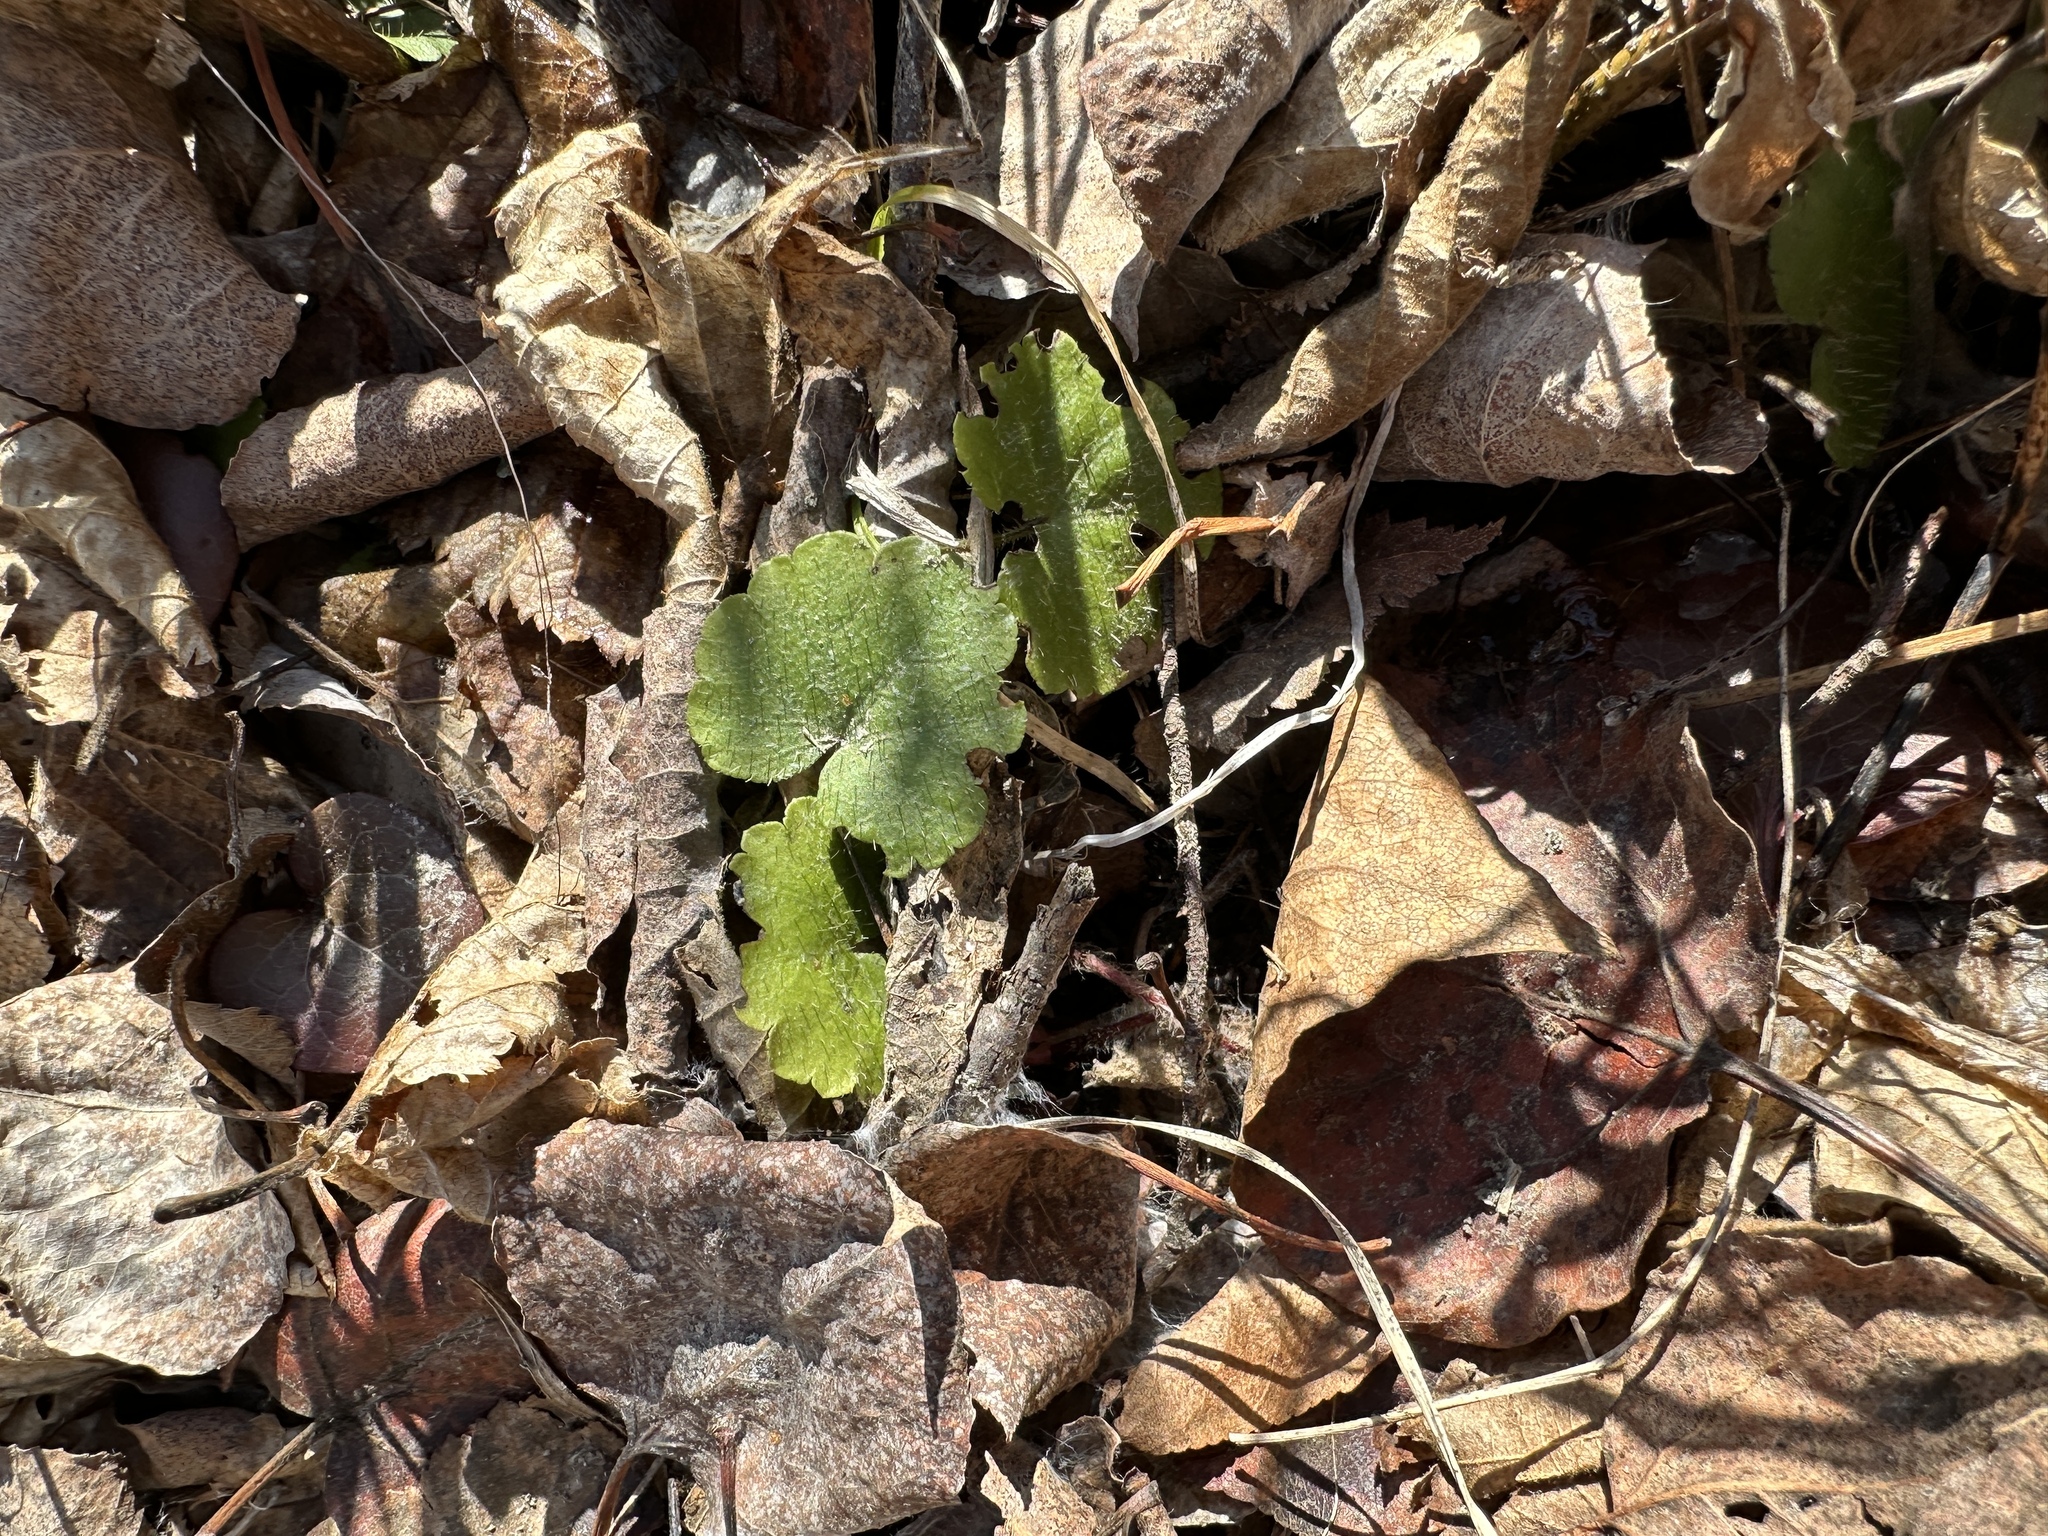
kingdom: Plantae
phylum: Tracheophyta
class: Magnoliopsida
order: Saxifragales
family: Saxifragaceae
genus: Mitella
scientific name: Mitella nuda
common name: Bare-stemmed bishop's-cap
